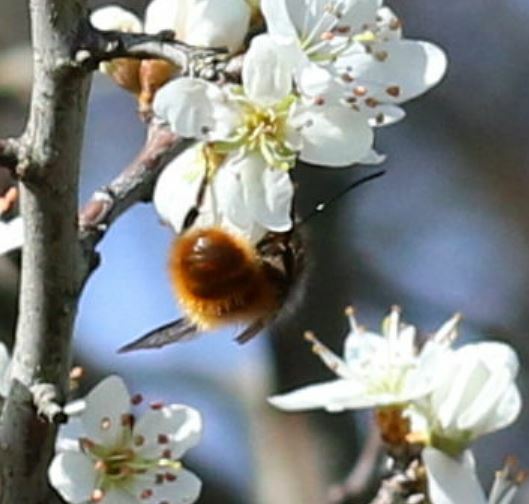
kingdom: Animalia
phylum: Arthropoda
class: Insecta
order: Hymenoptera
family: Megachilidae
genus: Osmia
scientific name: Osmia cornuta
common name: Mason bee
